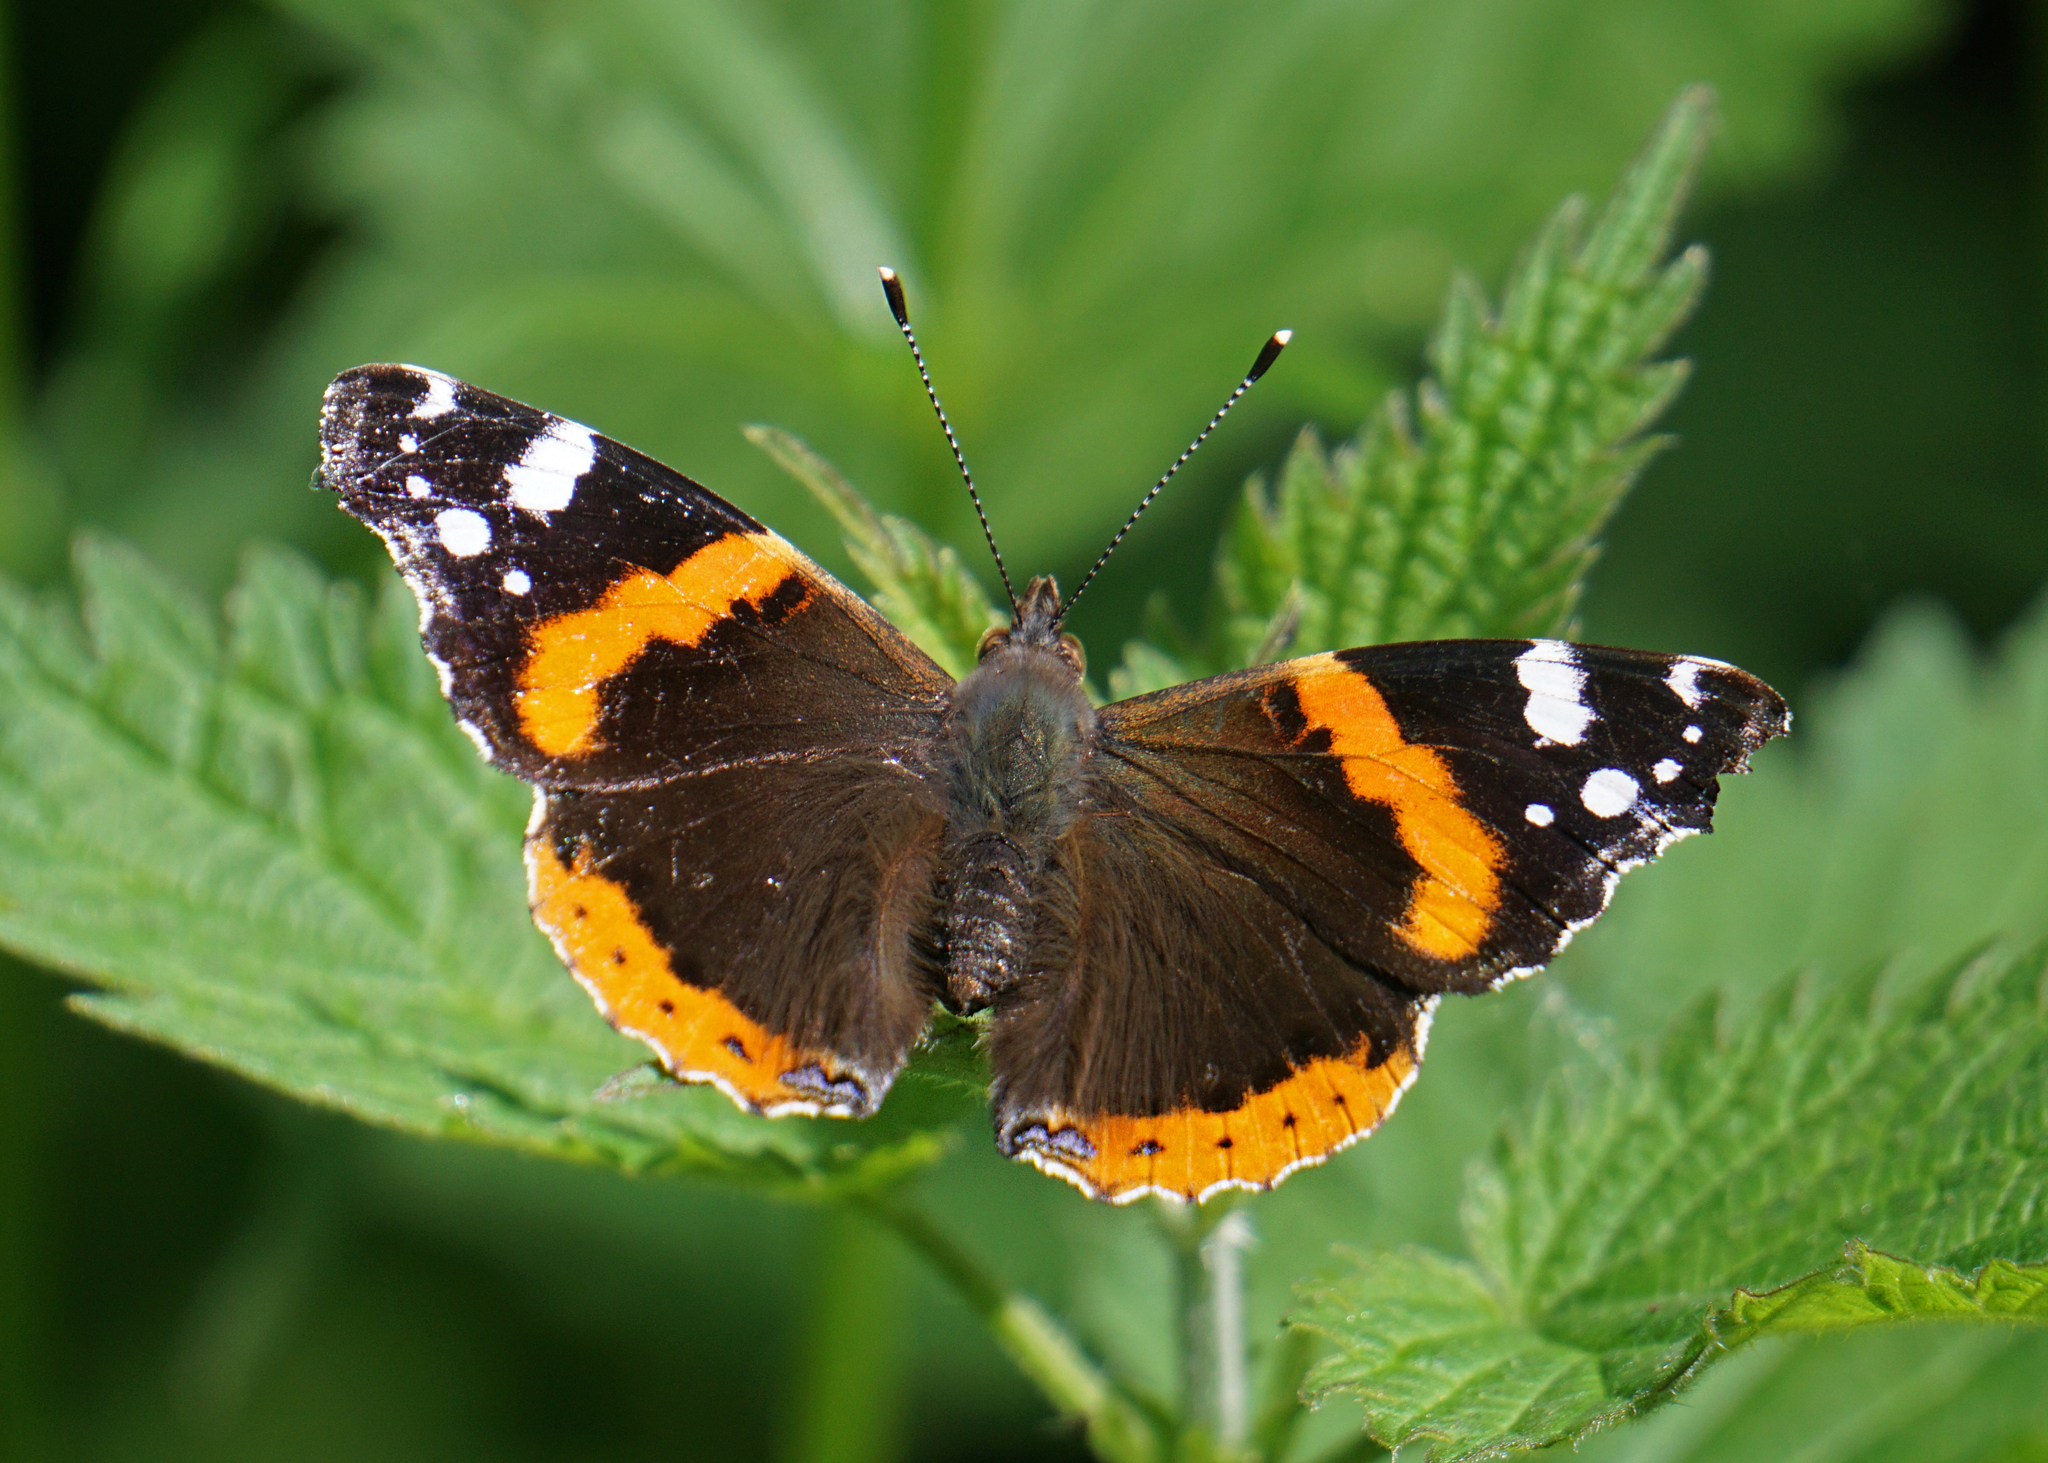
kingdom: Animalia
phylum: Arthropoda
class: Insecta
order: Lepidoptera
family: Nymphalidae
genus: Vanessa
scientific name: Vanessa atalanta
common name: Red admiral
